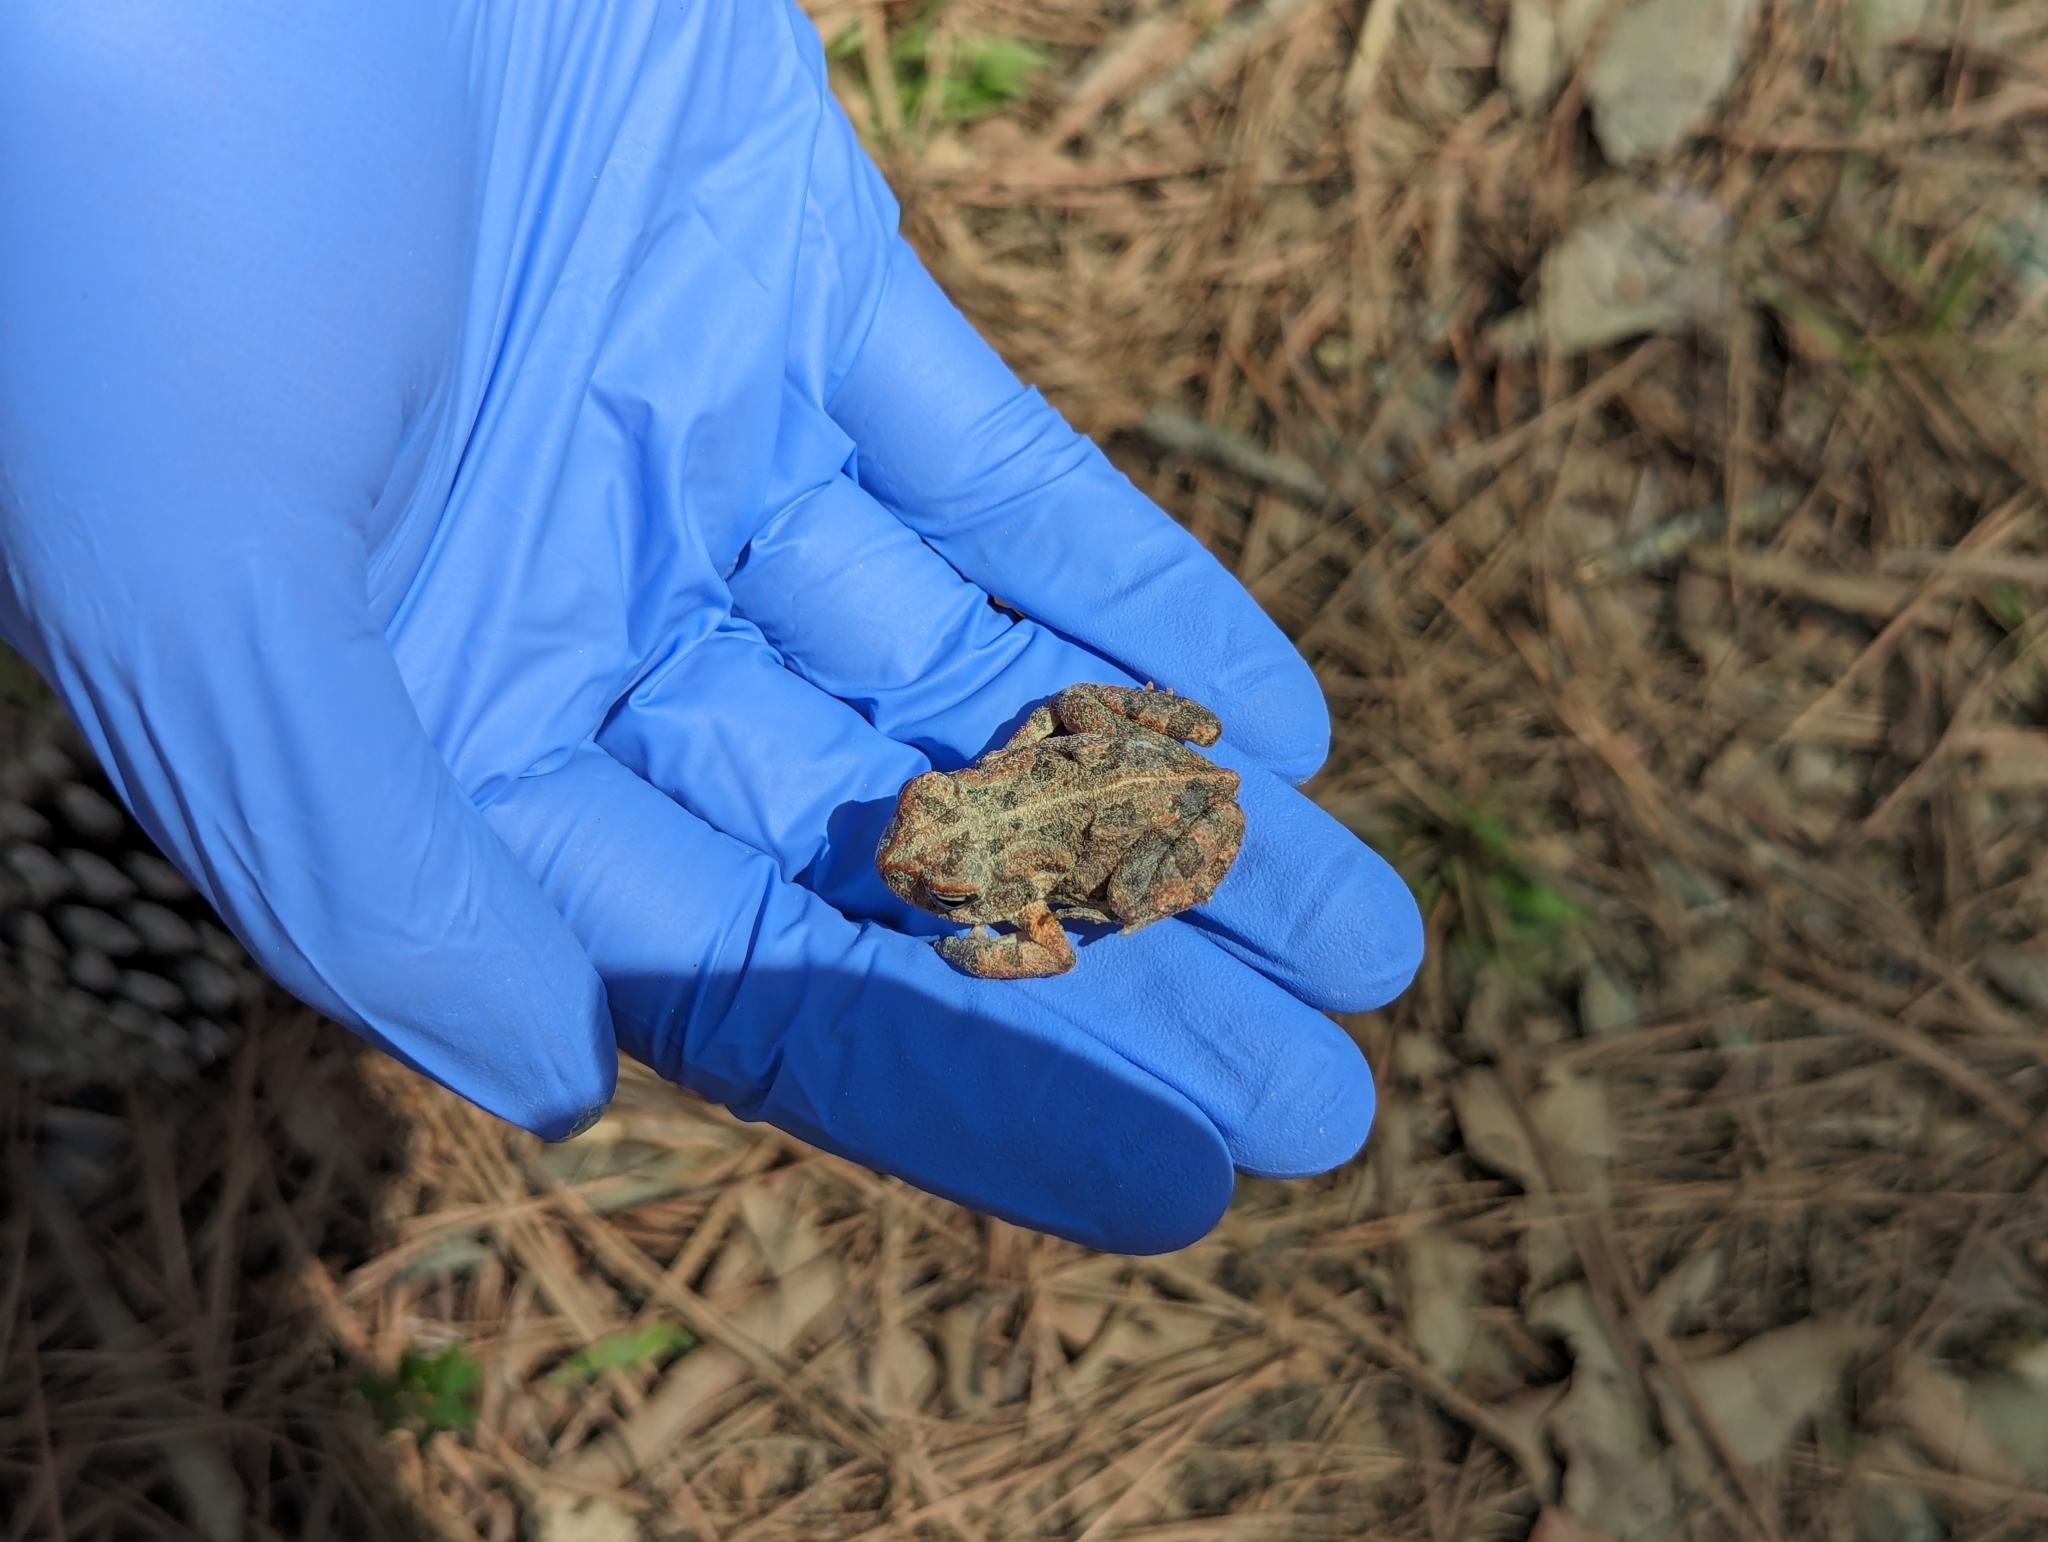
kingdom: Animalia
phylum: Chordata
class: Amphibia
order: Anura
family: Bufonidae
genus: Anaxyrus
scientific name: Anaxyrus fowleri
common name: Fowler's toad
